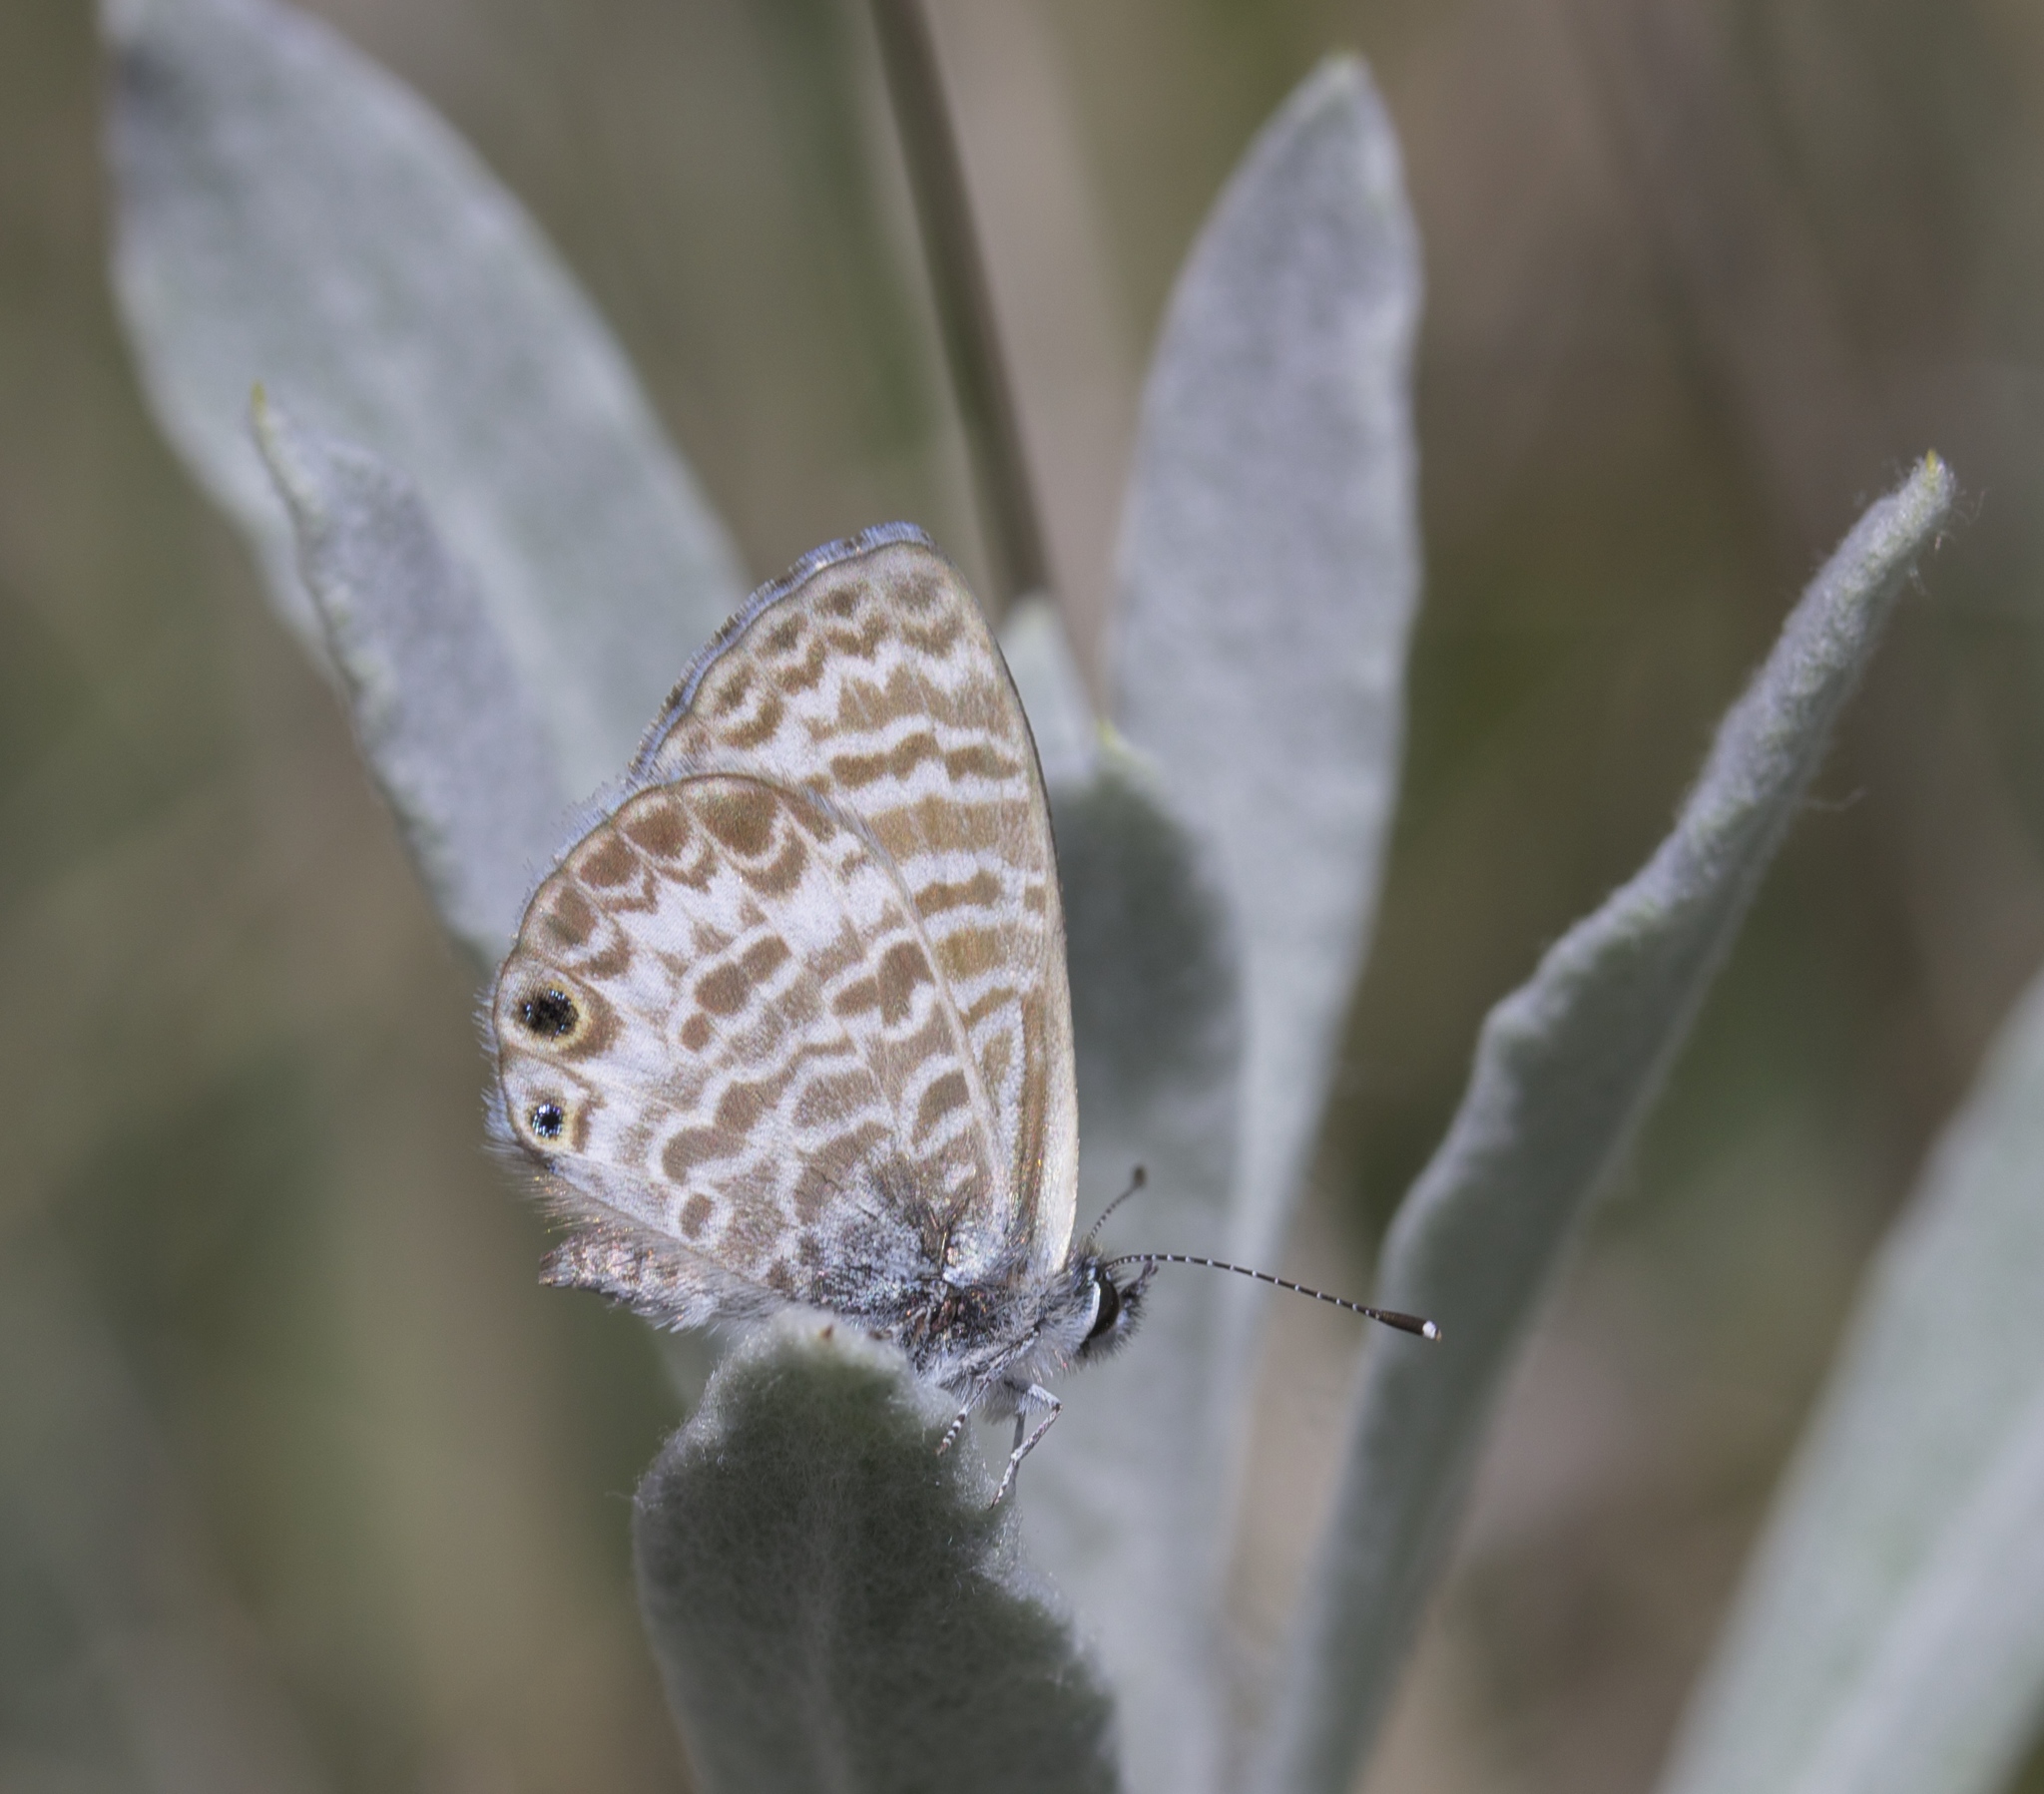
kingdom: Animalia
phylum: Arthropoda
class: Insecta
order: Lepidoptera
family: Lycaenidae
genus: Leptotes
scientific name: Leptotes marina
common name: Marine blue
